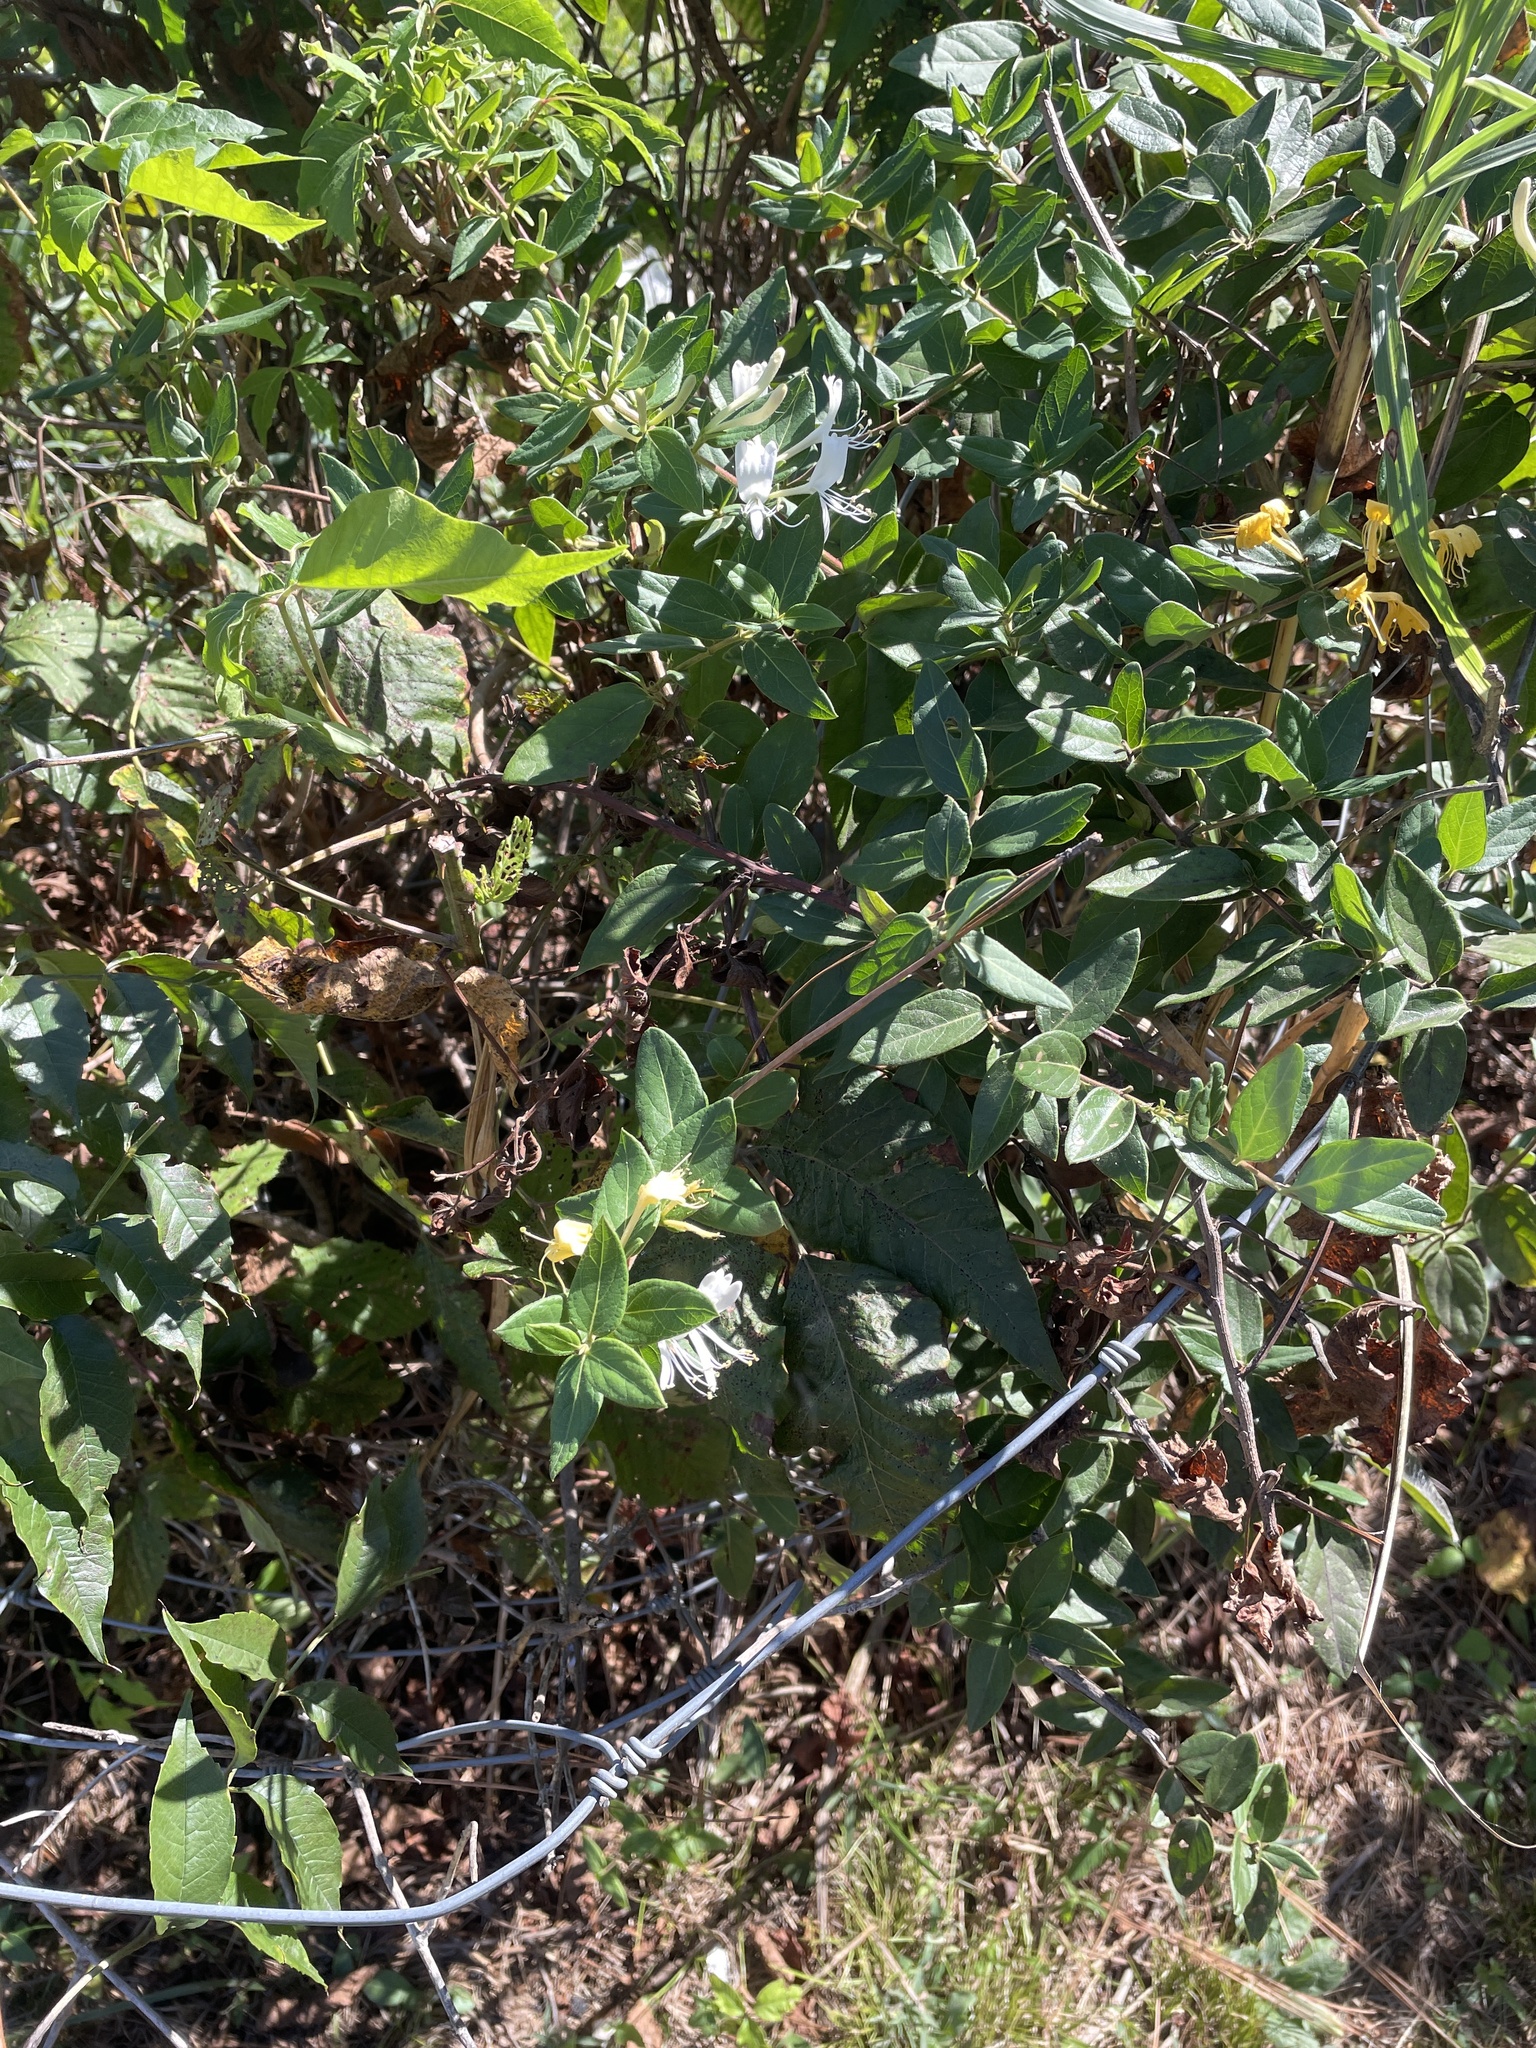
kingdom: Plantae
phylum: Tracheophyta
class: Magnoliopsida
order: Dipsacales
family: Caprifoliaceae
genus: Lonicera
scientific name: Lonicera japonica
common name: Japanese honeysuckle
